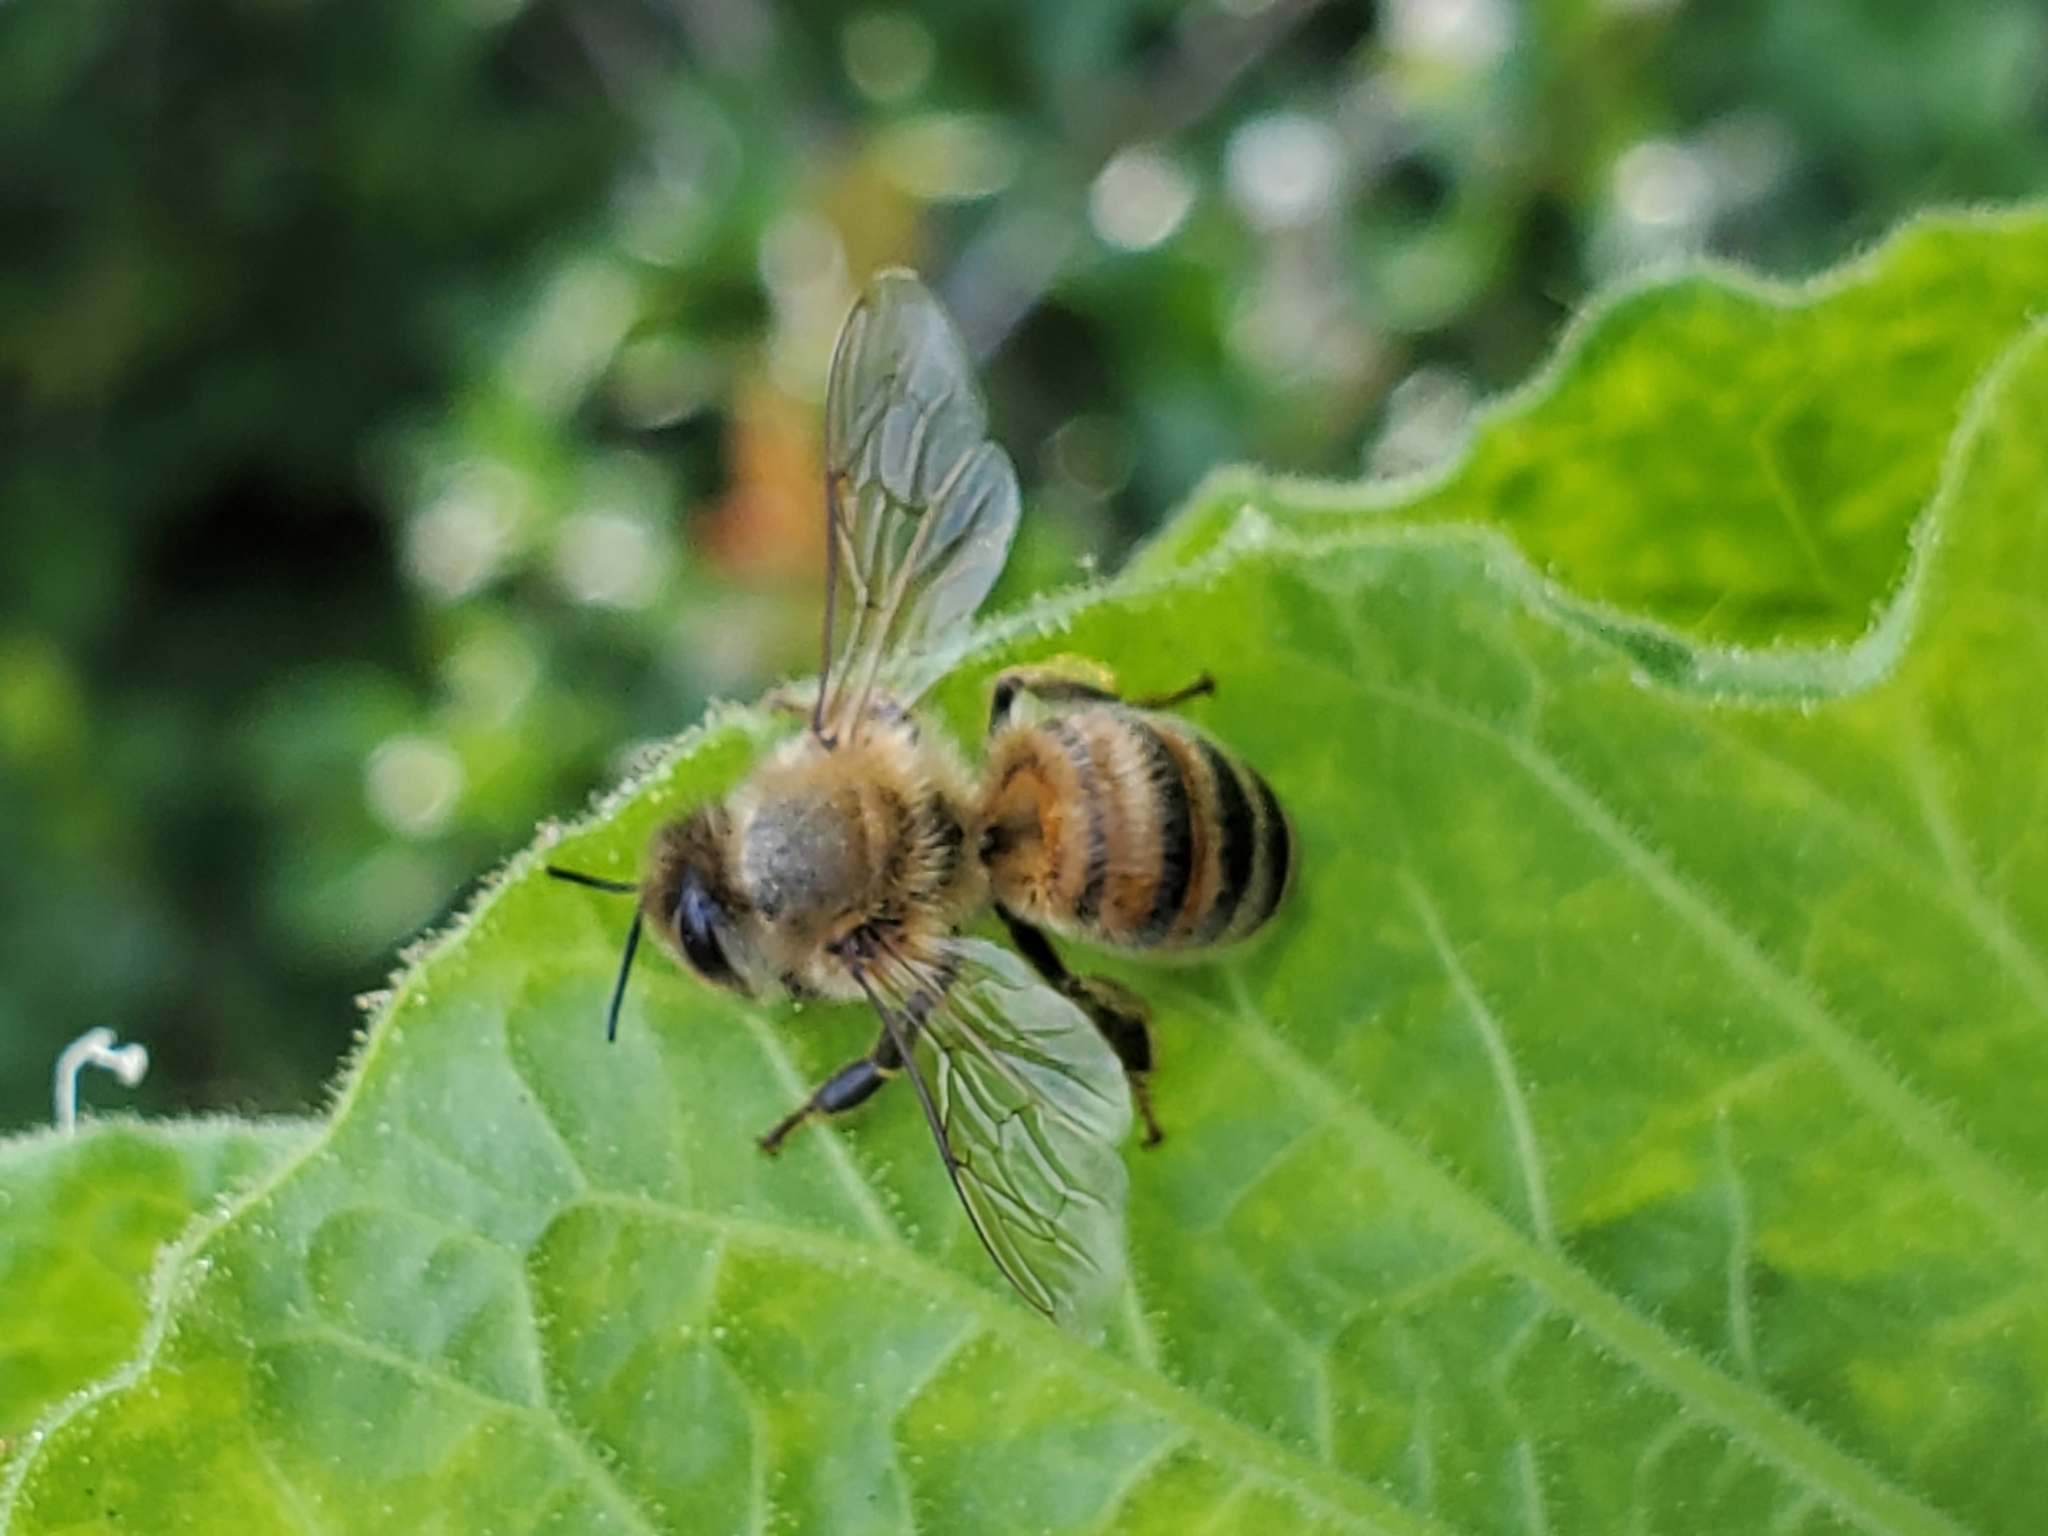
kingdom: Animalia
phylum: Arthropoda
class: Insecta
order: Hymenoptera
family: Apidae
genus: Apis
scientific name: Apis mellifera
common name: Honey bee
